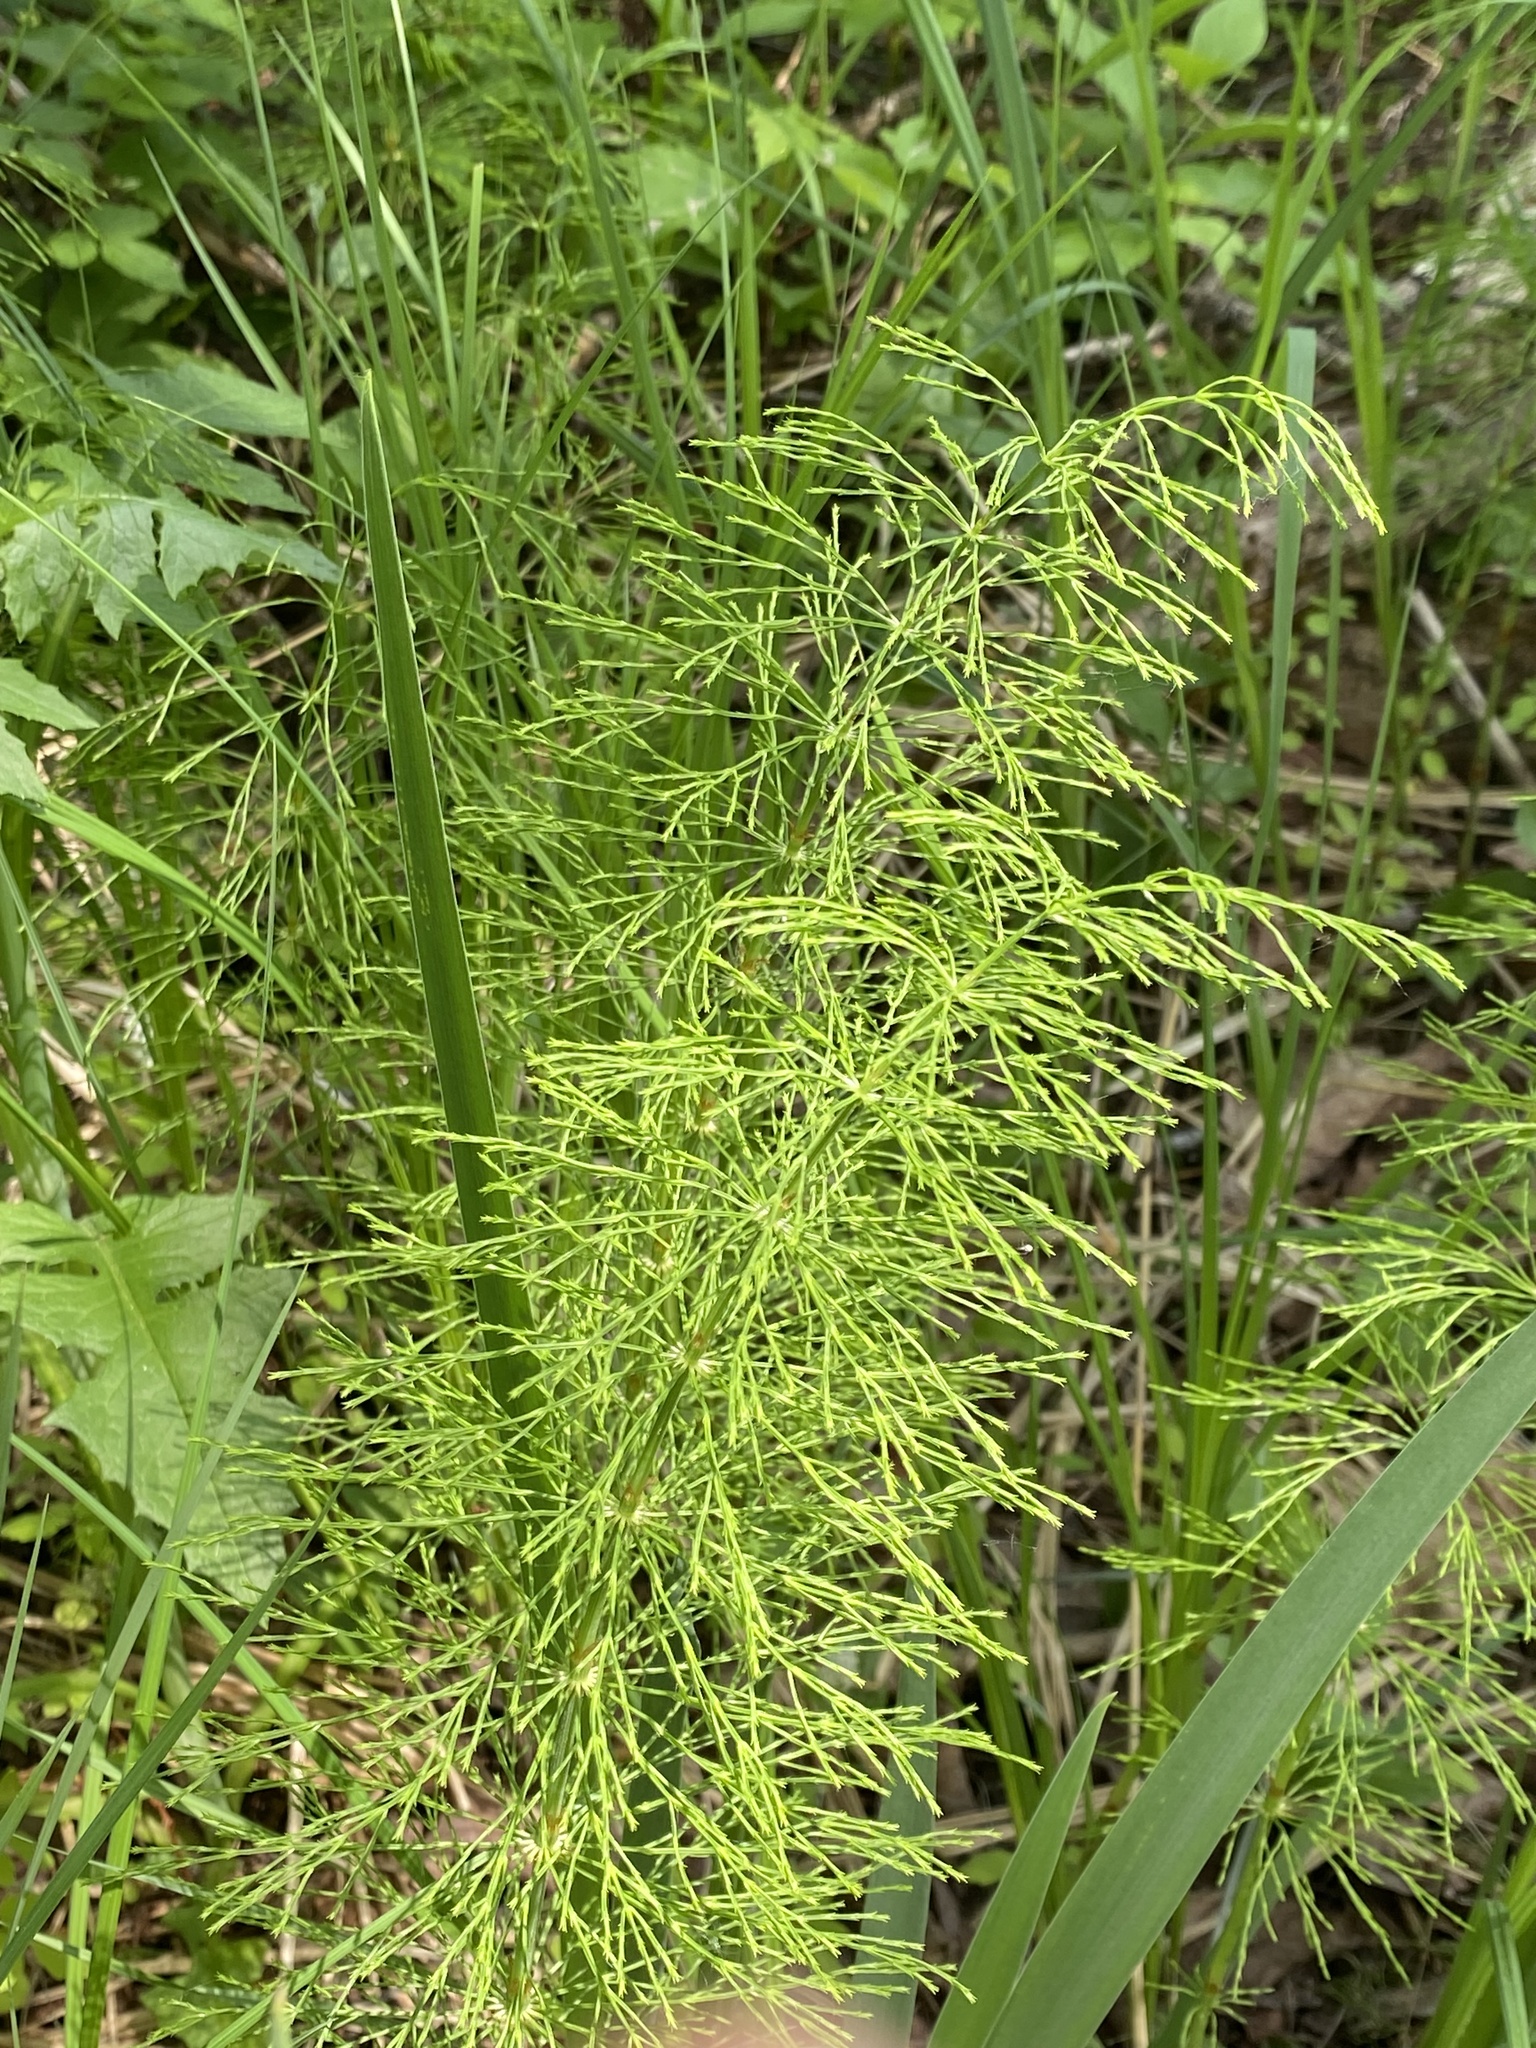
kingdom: Plantae
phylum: Tracheophyta
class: Polypodiopsida
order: Equisetales
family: Equisetaceae
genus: Equisetum
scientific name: Equisetum sylvaticum
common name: Wood horsetail
